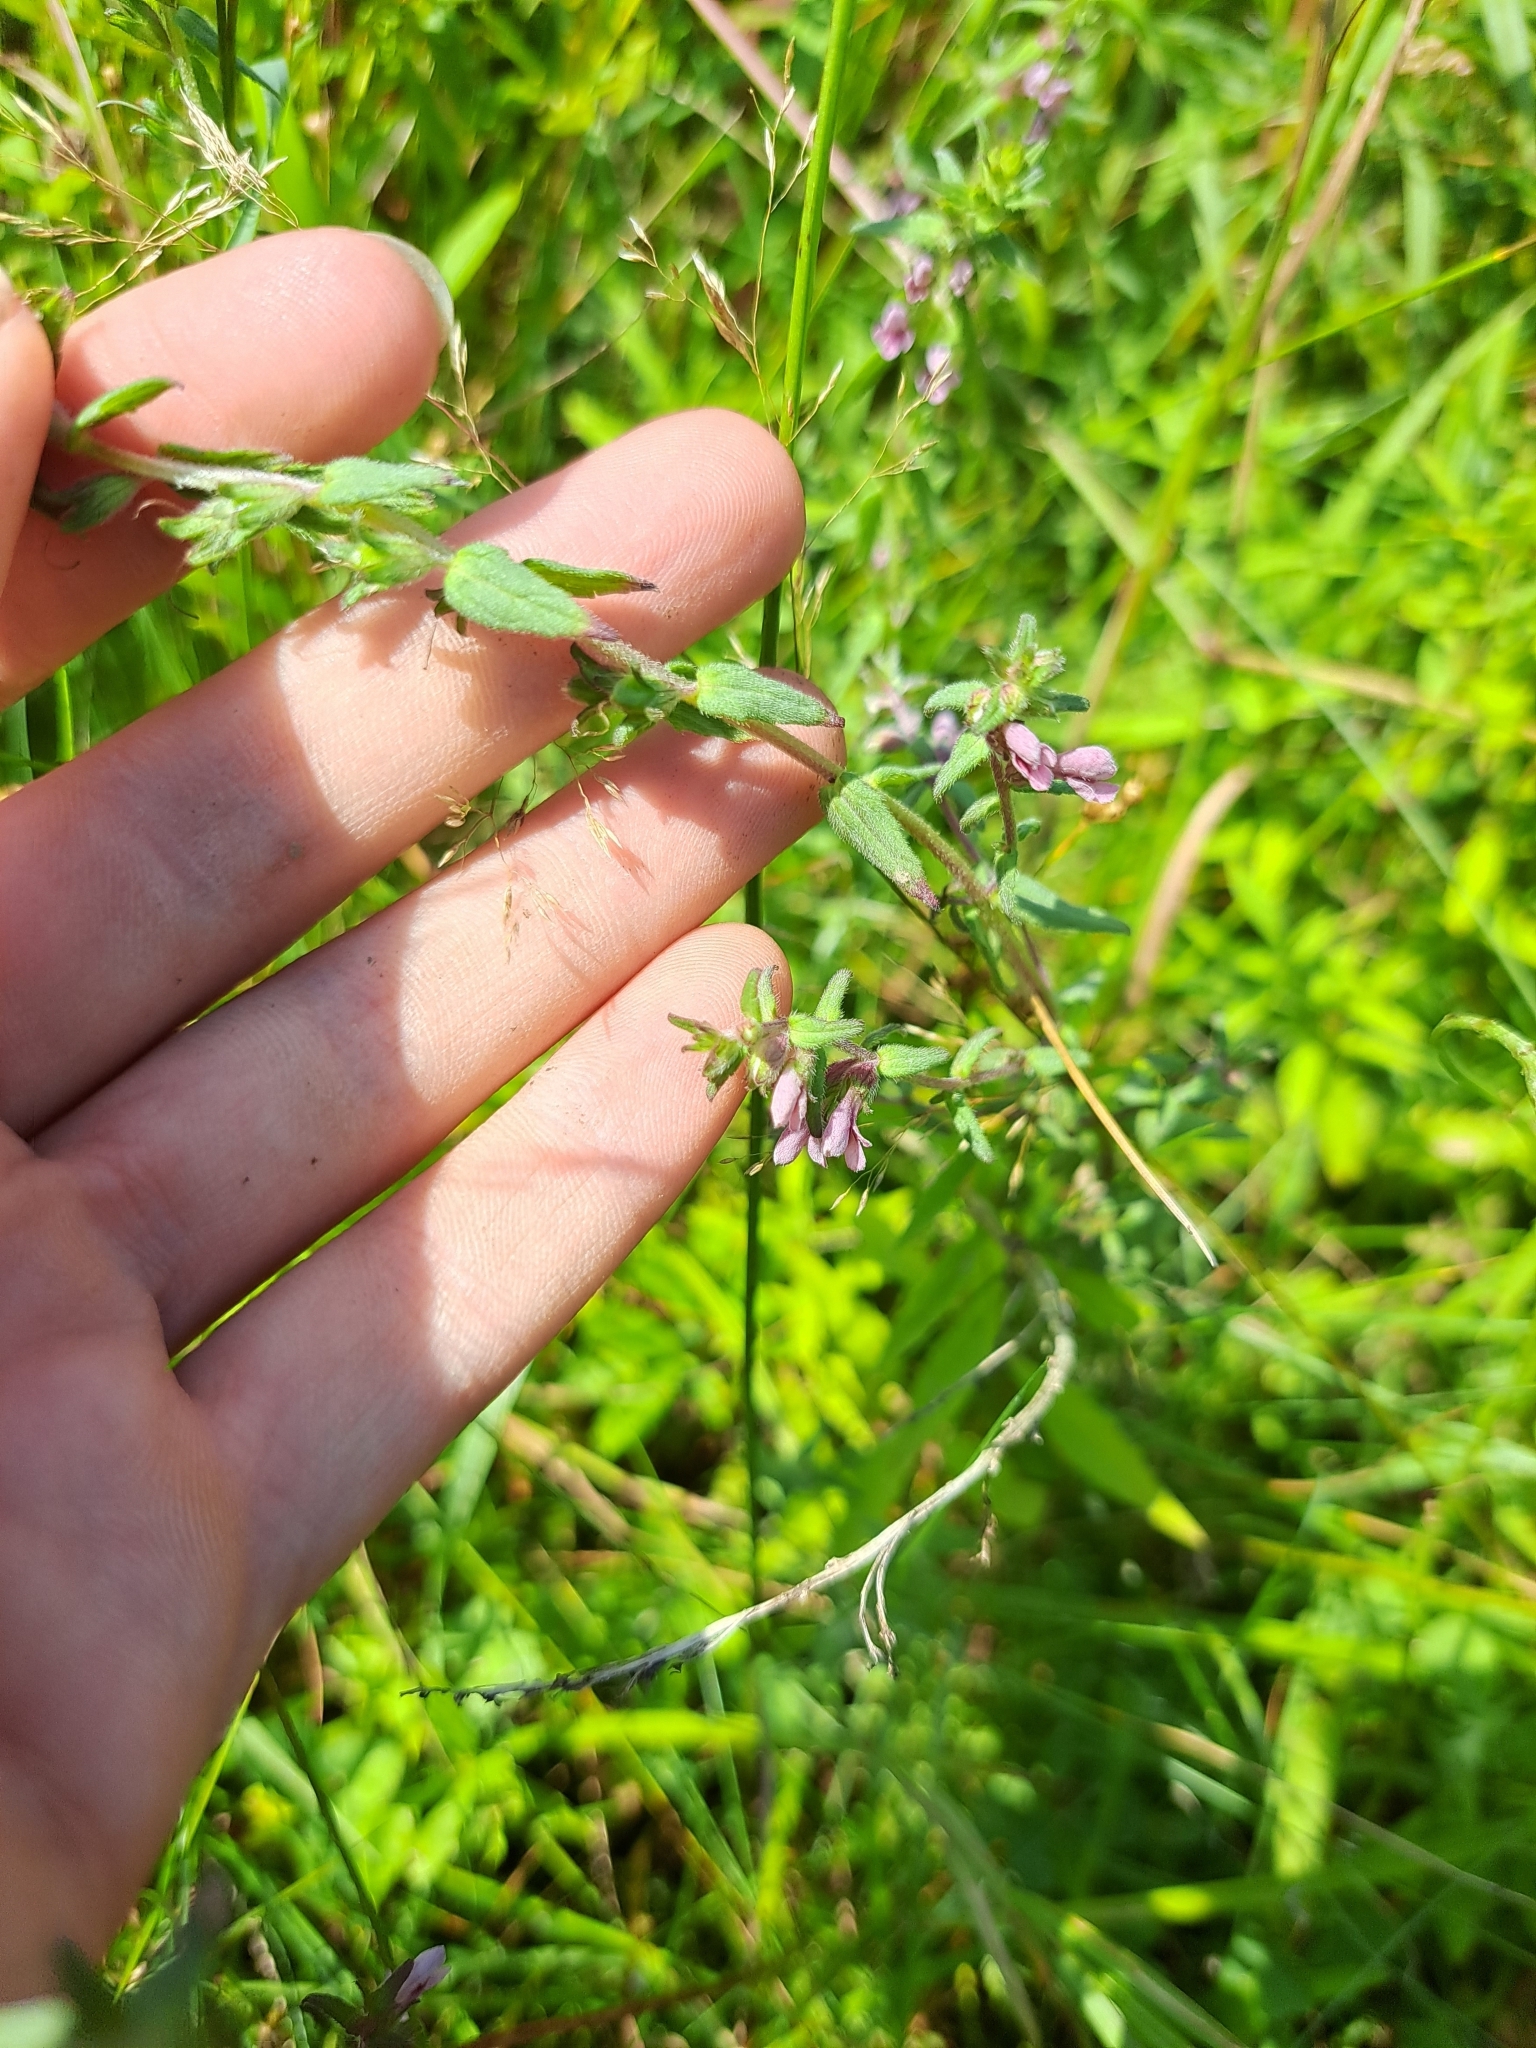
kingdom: Plantae
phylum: Tracheophyta
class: Magnoliopsida
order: Lamiales
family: Orobanchaceae
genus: Odontites
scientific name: Odontites vulgaris
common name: Broomrape
